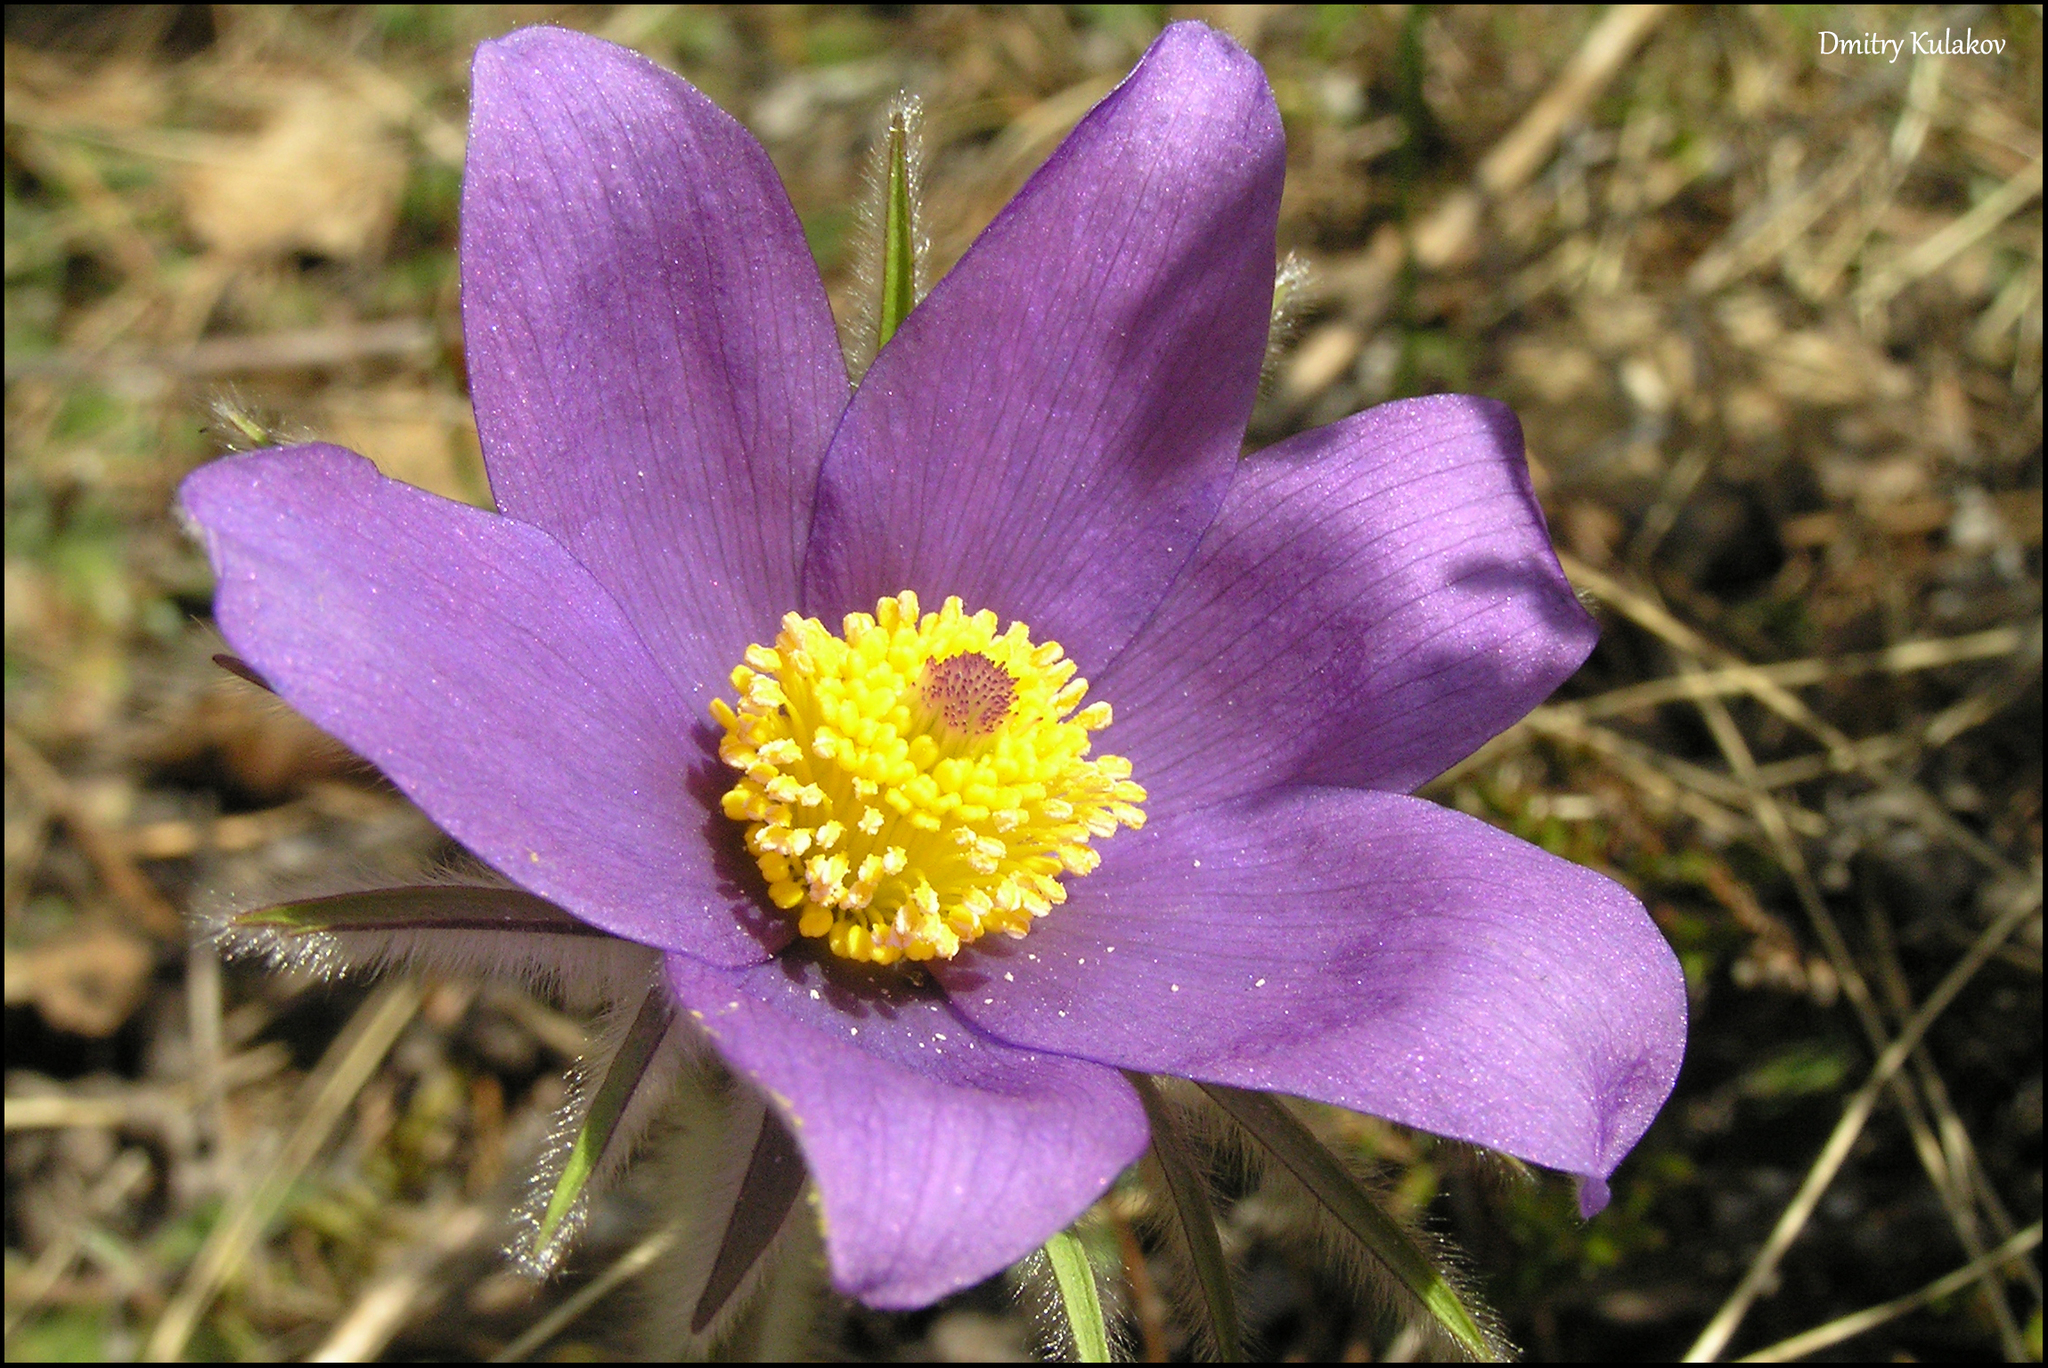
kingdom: Plantae
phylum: Tracheophyta
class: Magnoliopsida
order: Ranunculales
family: Ranunculaceae
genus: Pulsatilla
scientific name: Pulsatilla patens
